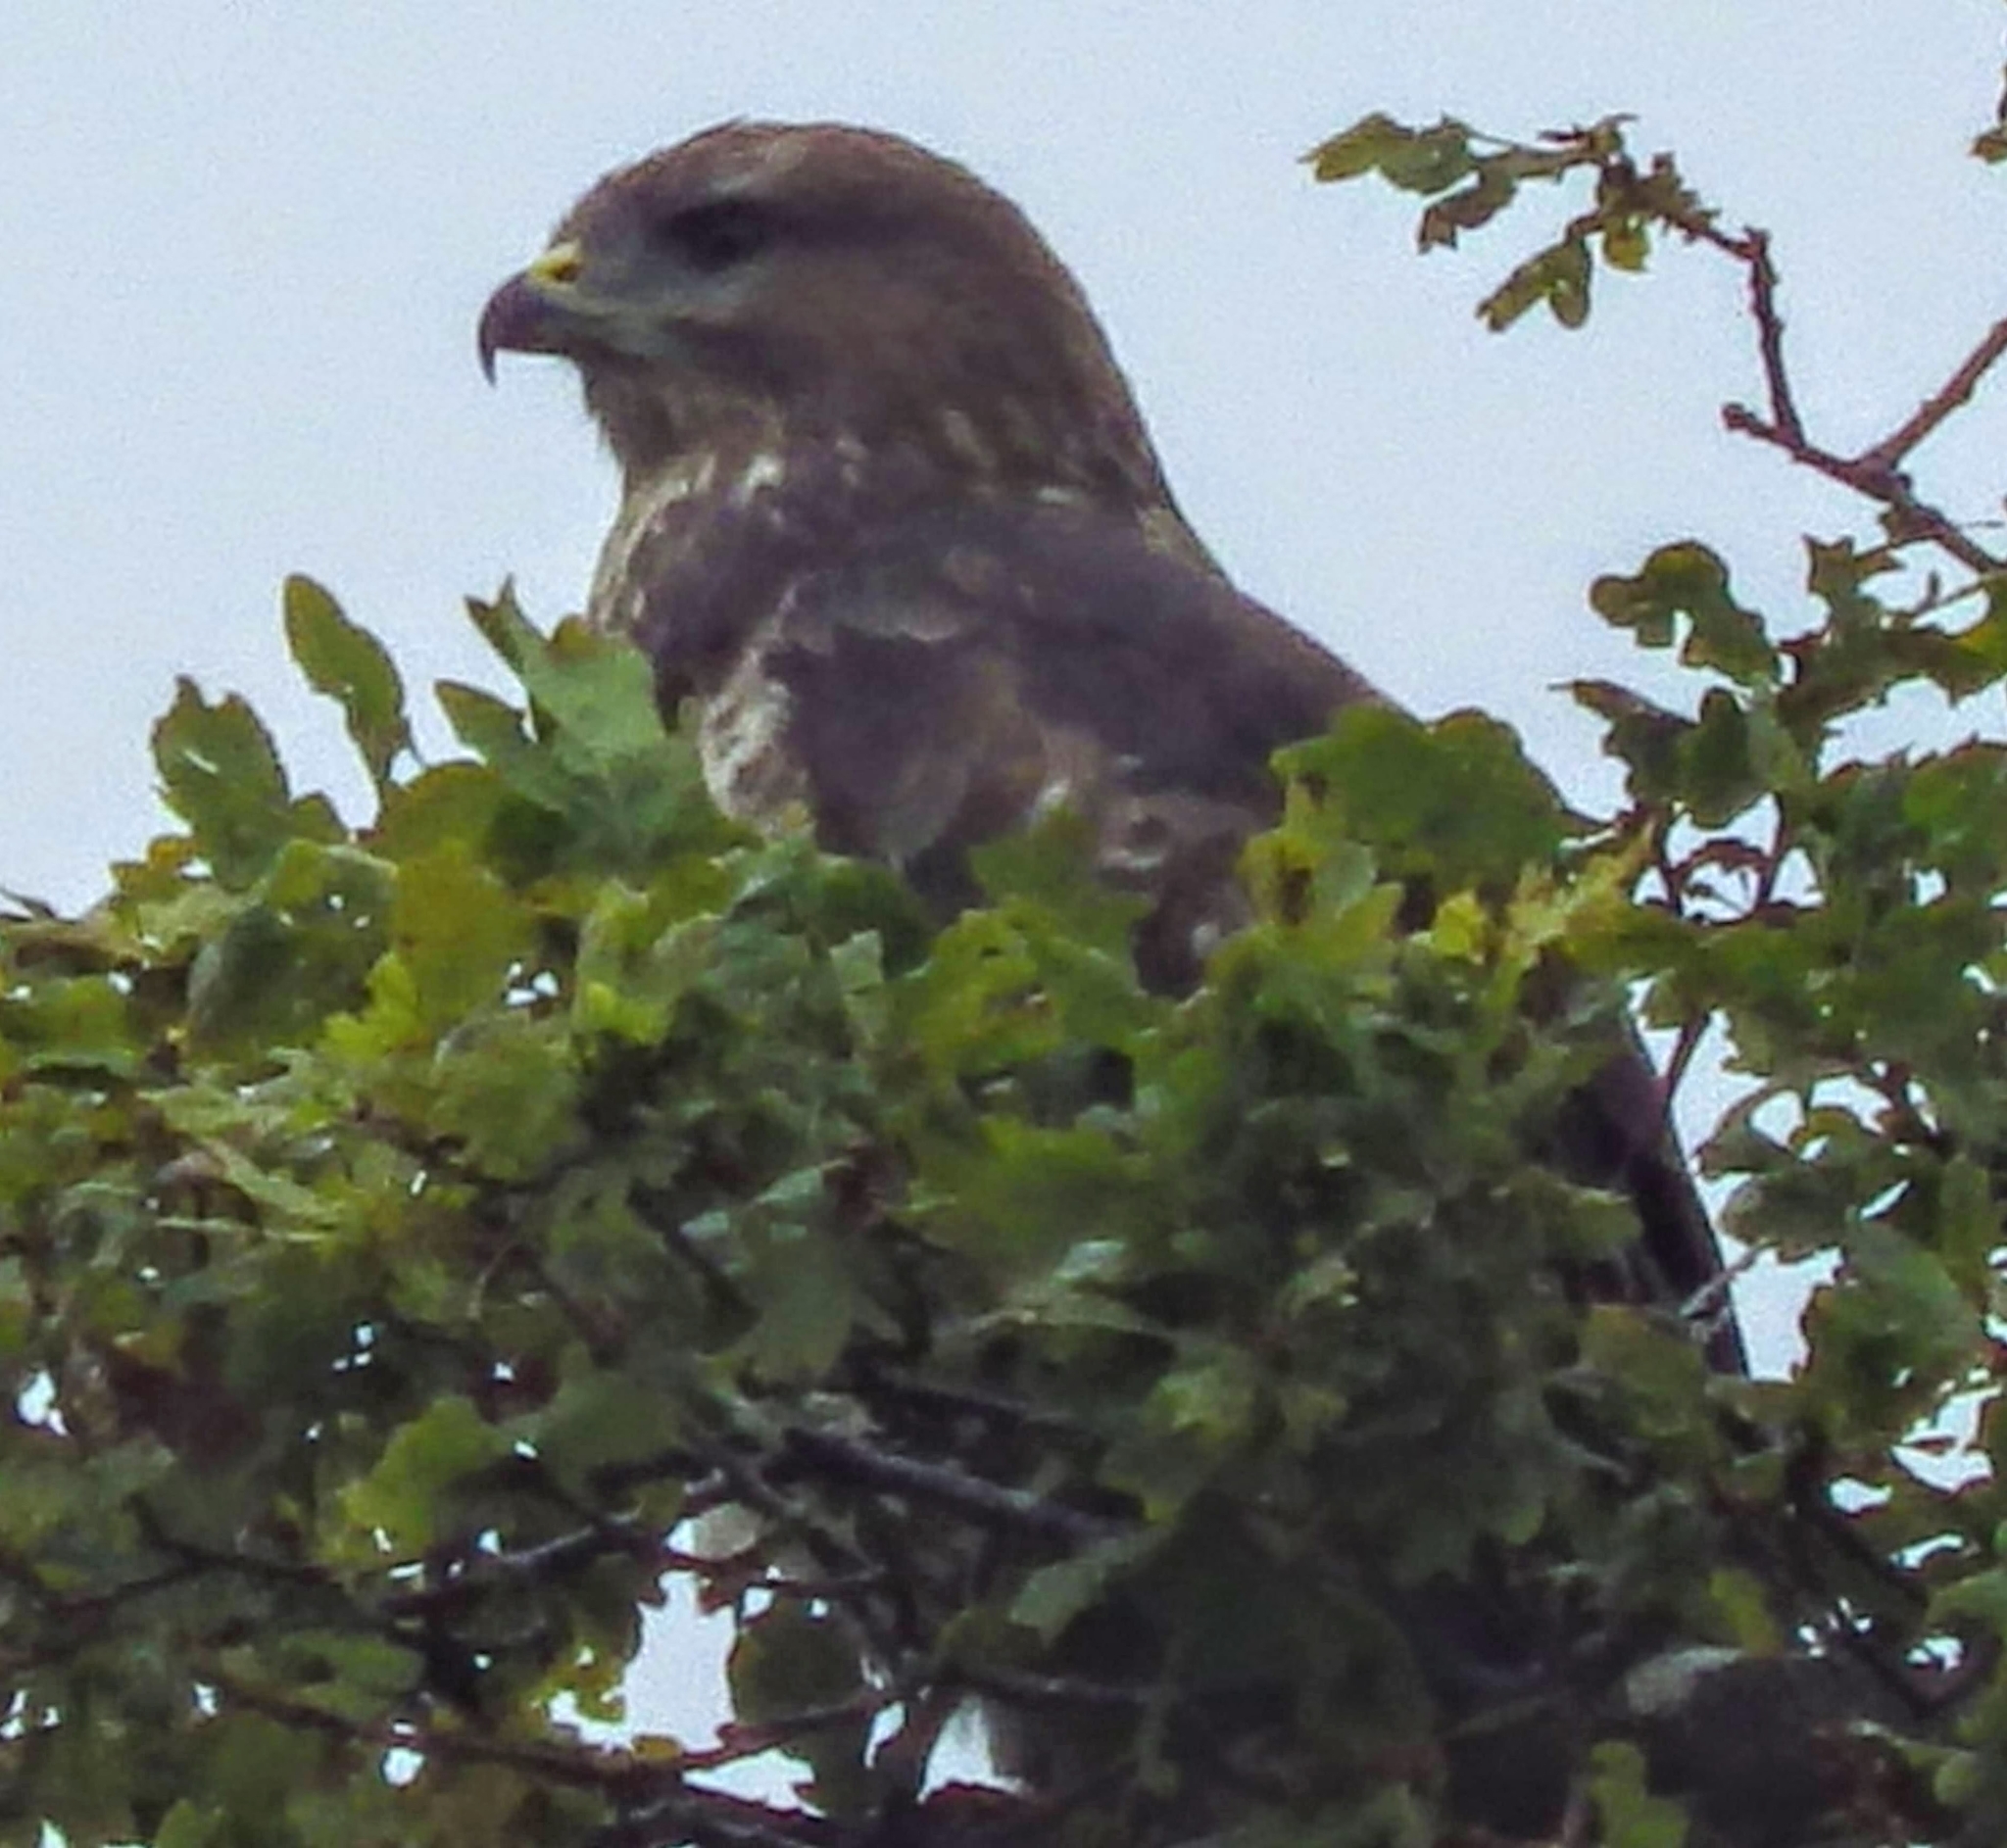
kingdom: Animalia
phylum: Chordata
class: Aves
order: Accipitriformes
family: Accipitridae
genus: Buteo
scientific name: Buteo buteo
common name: Common buzzard
